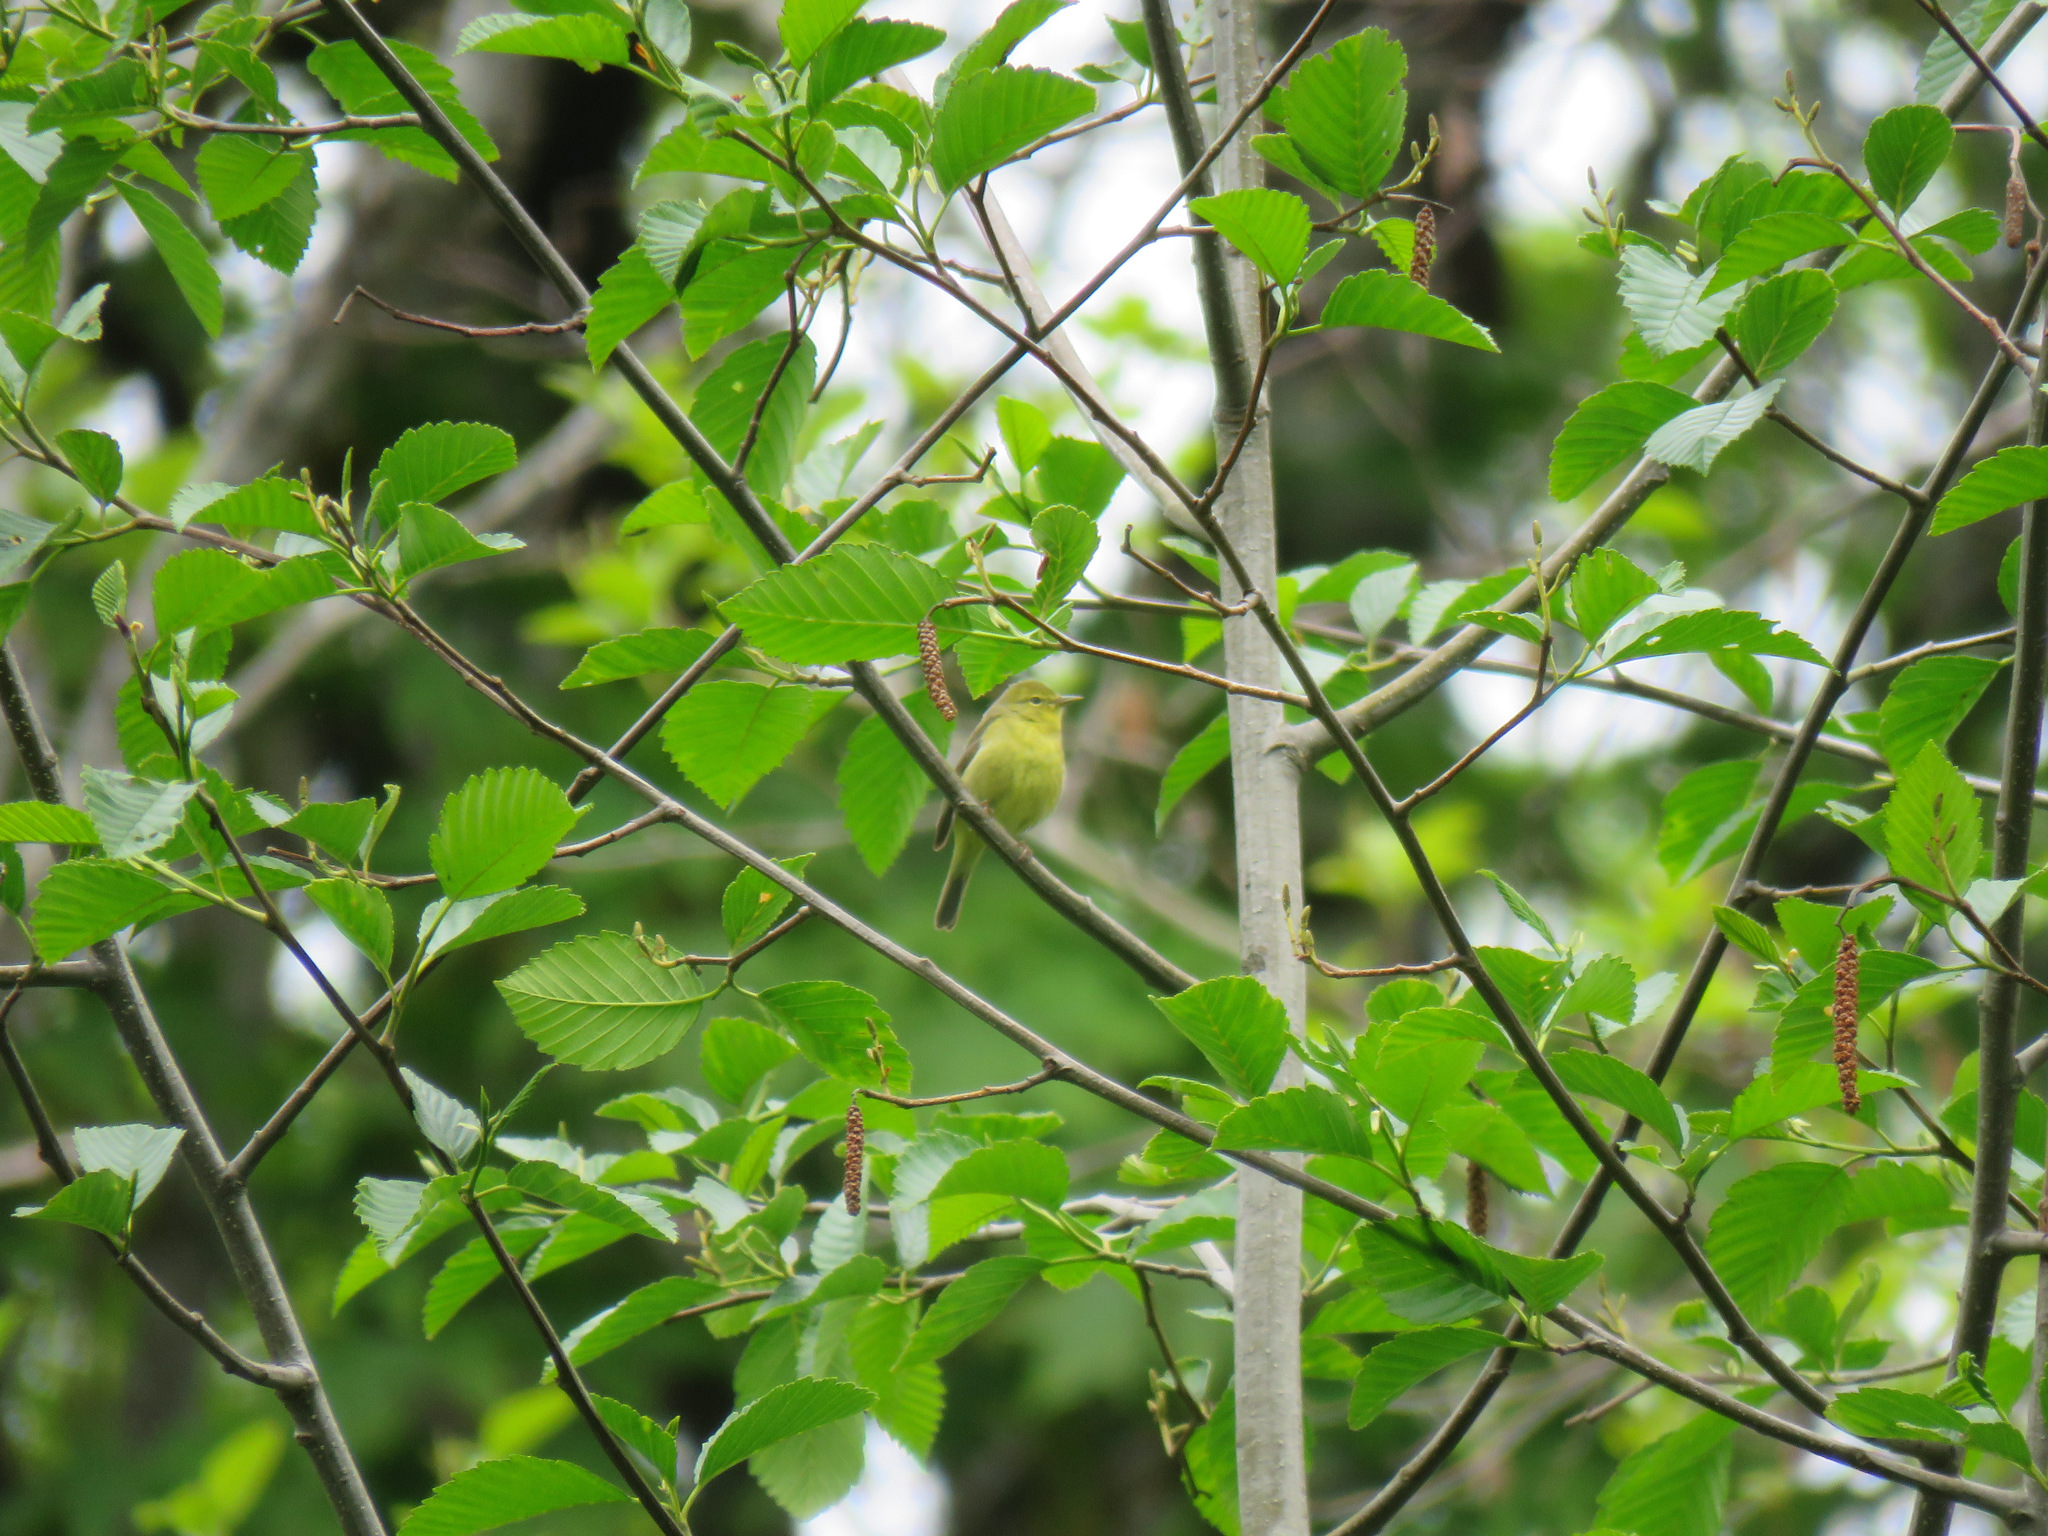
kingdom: Animalia
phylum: Chordata
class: Aves
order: Passeriformes
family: Parulidae
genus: Leiothlypis
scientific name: Leiothlypis celata
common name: Orange-crowned warbler
